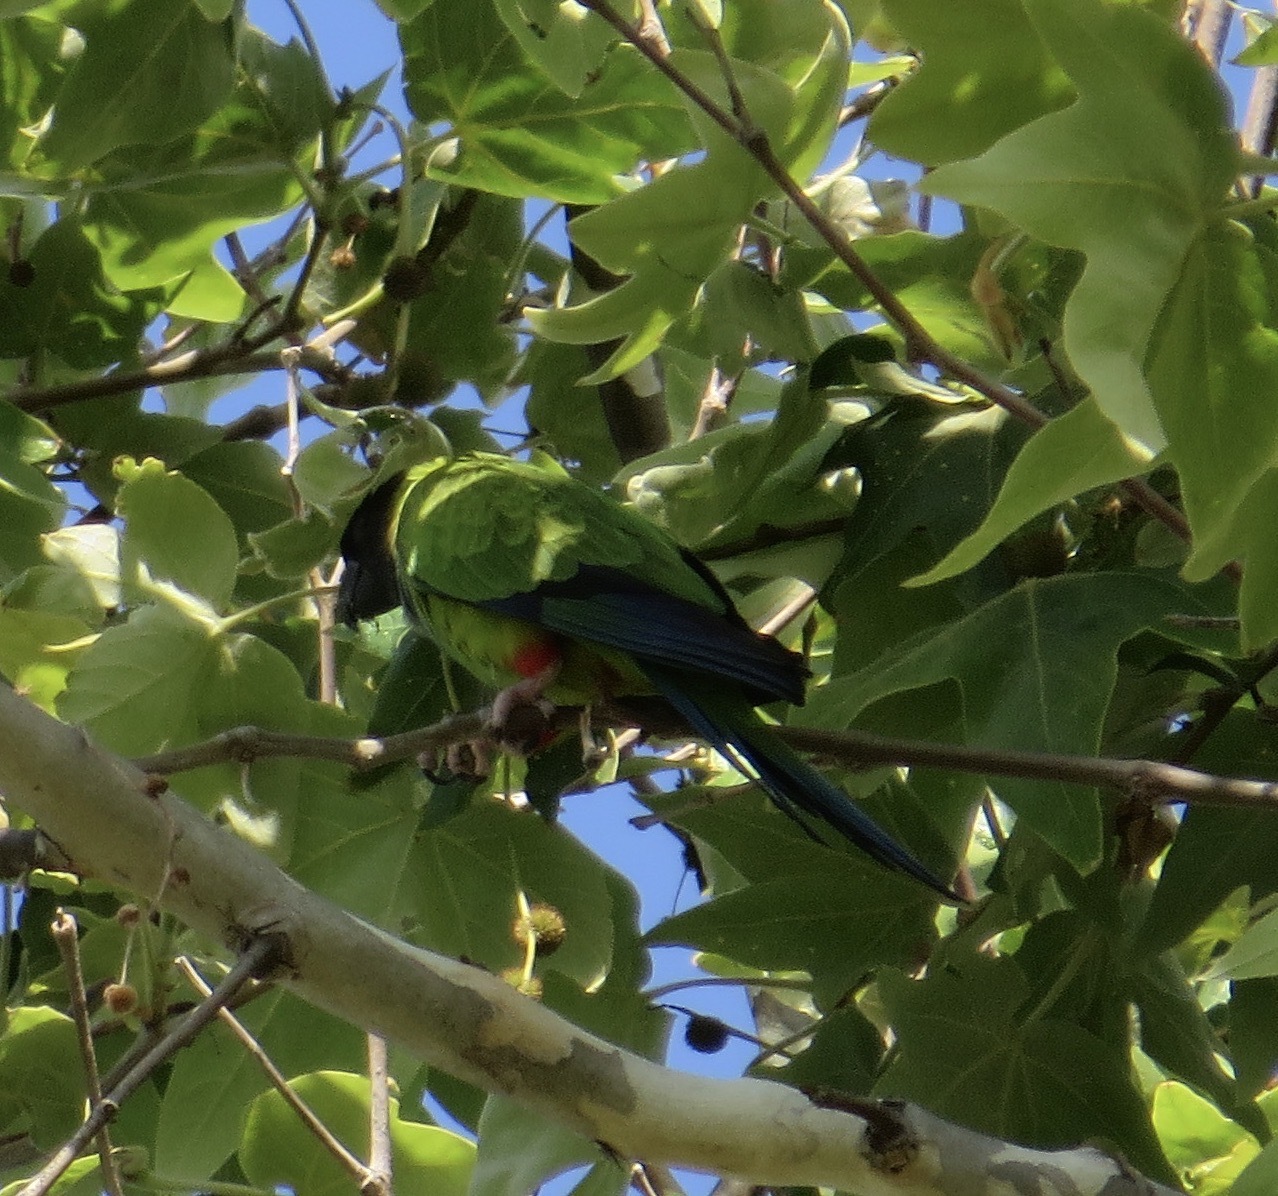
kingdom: Animalia
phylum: Chordata
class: Aves
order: Psittaciformes
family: Psittacidae
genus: Nandayus
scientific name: Nandayus nenday
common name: Nanday parakeet
